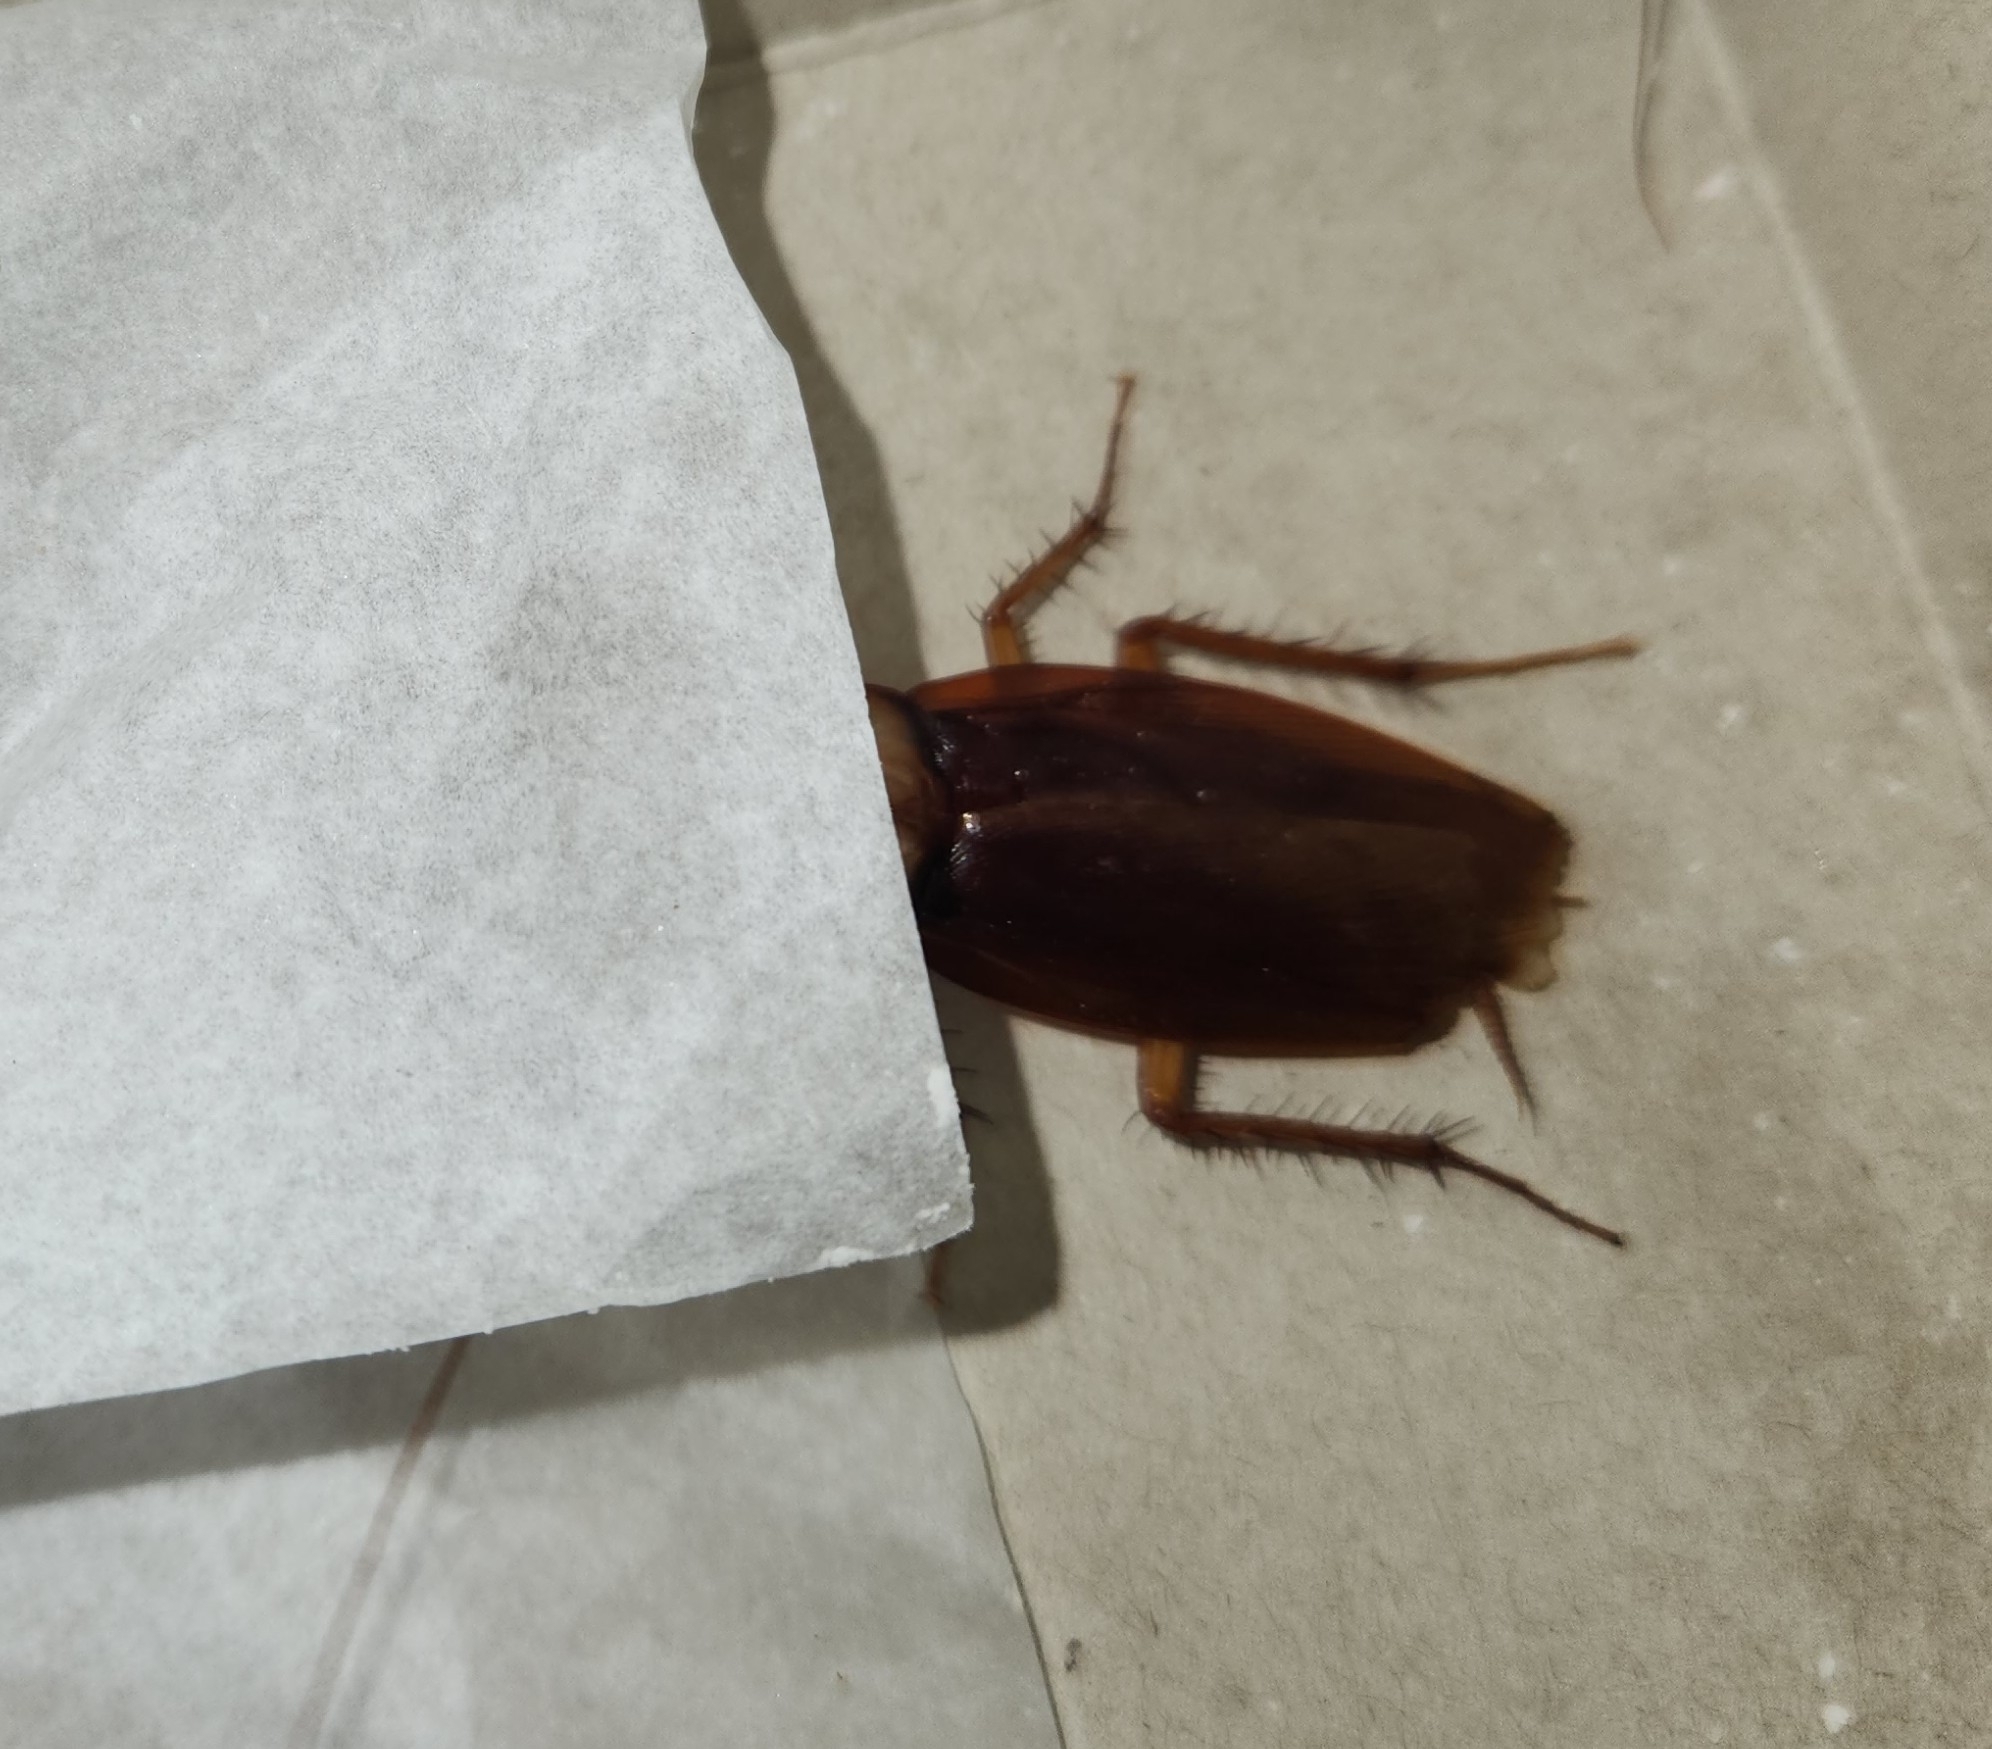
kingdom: Animalia
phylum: Arthropoda
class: Insecta
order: Blattodea
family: Blattidae
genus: Periplaneta
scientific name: Periplaneta americana
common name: American cockroach
